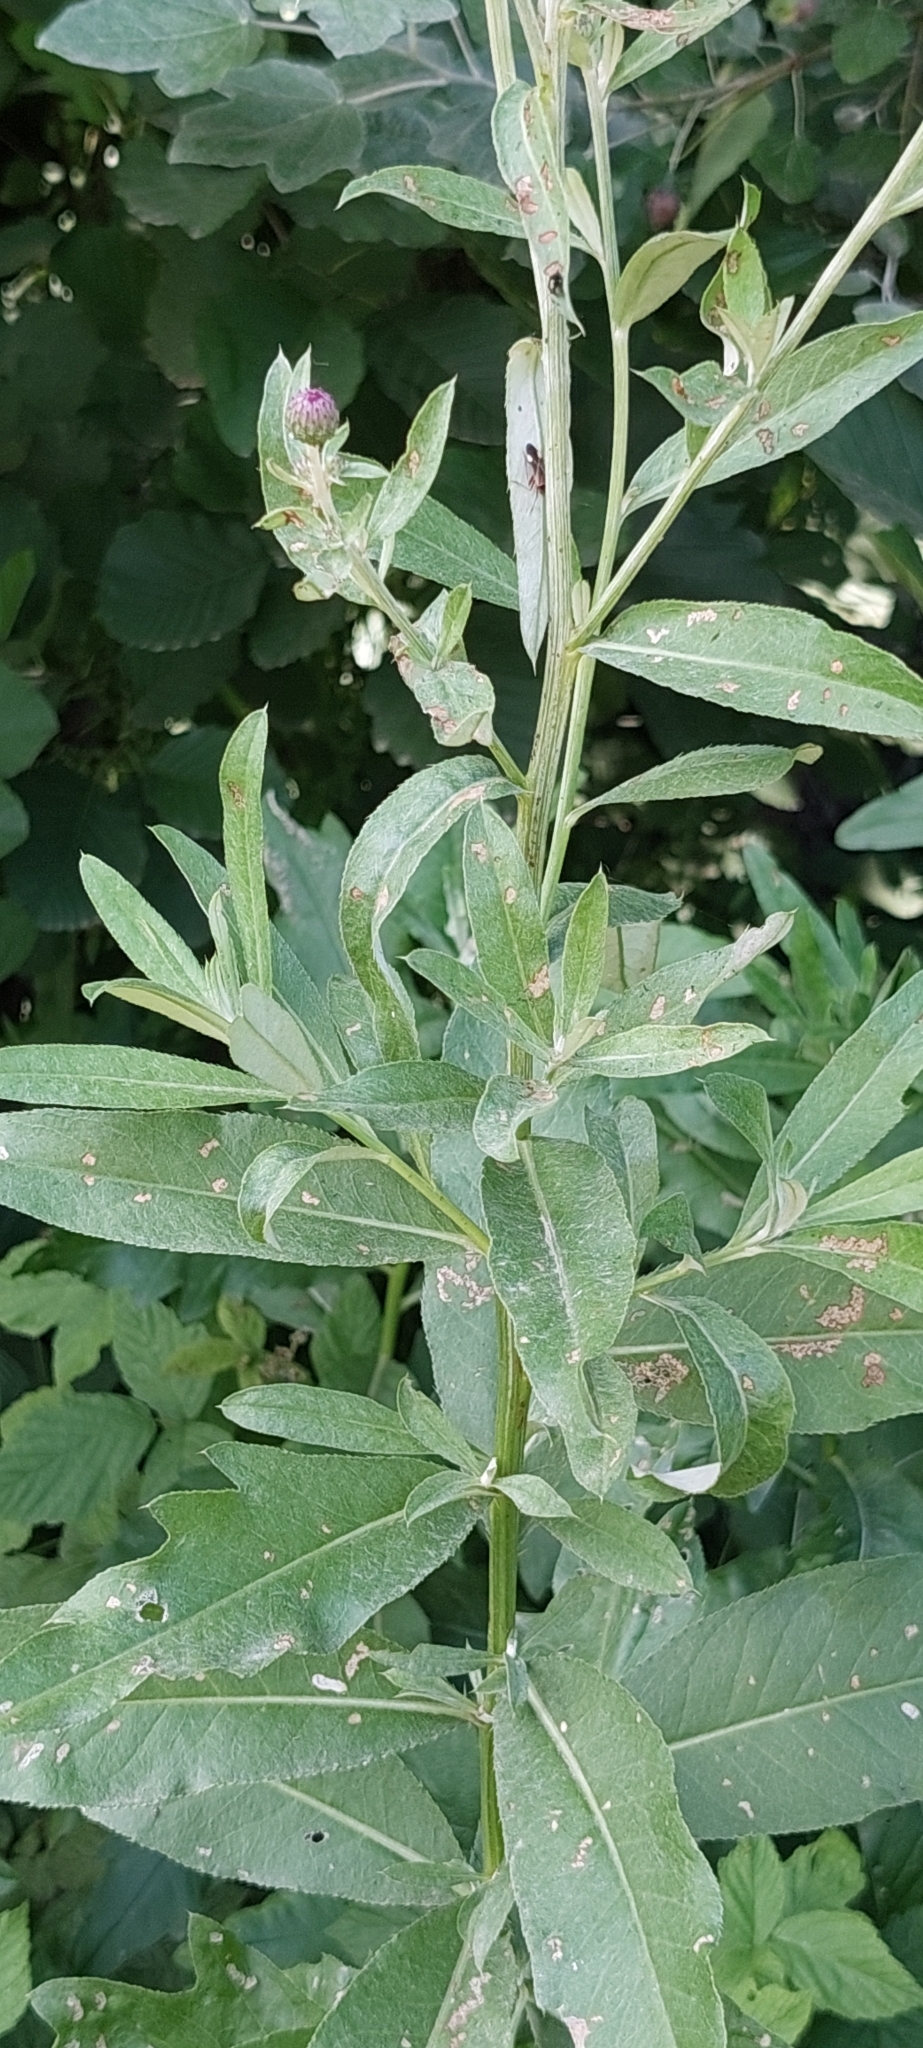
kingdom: Plantae
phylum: Tracheophyta
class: Magnoliopsida
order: Asterales
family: Asteraceae
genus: Cirsium
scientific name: Cirsium arvense
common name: Creeping thistle
